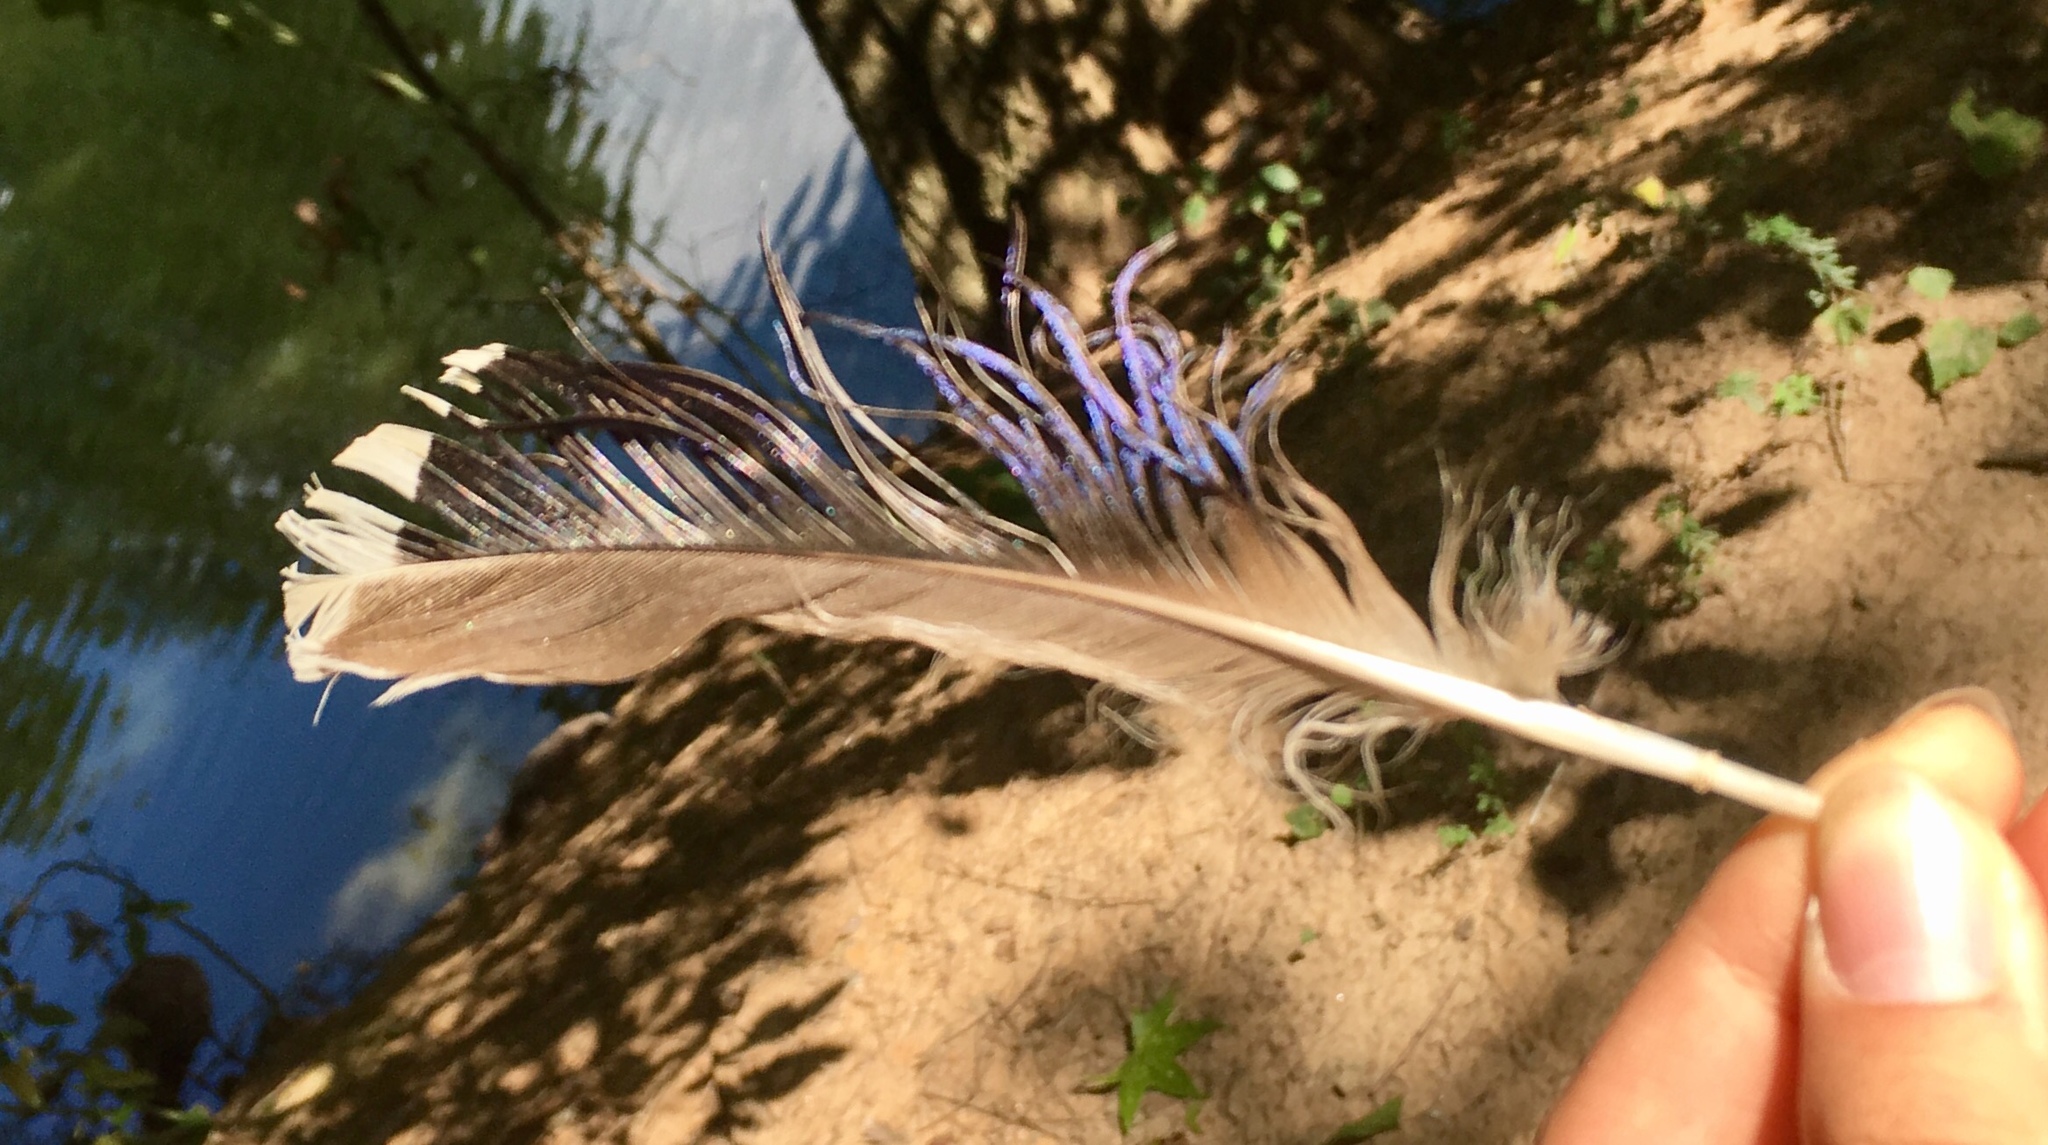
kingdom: Animalia
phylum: Chordata
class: Aves
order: Anseriformes
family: Anatidae
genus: Anas
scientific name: Anas platyrhynchos
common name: Mallard
